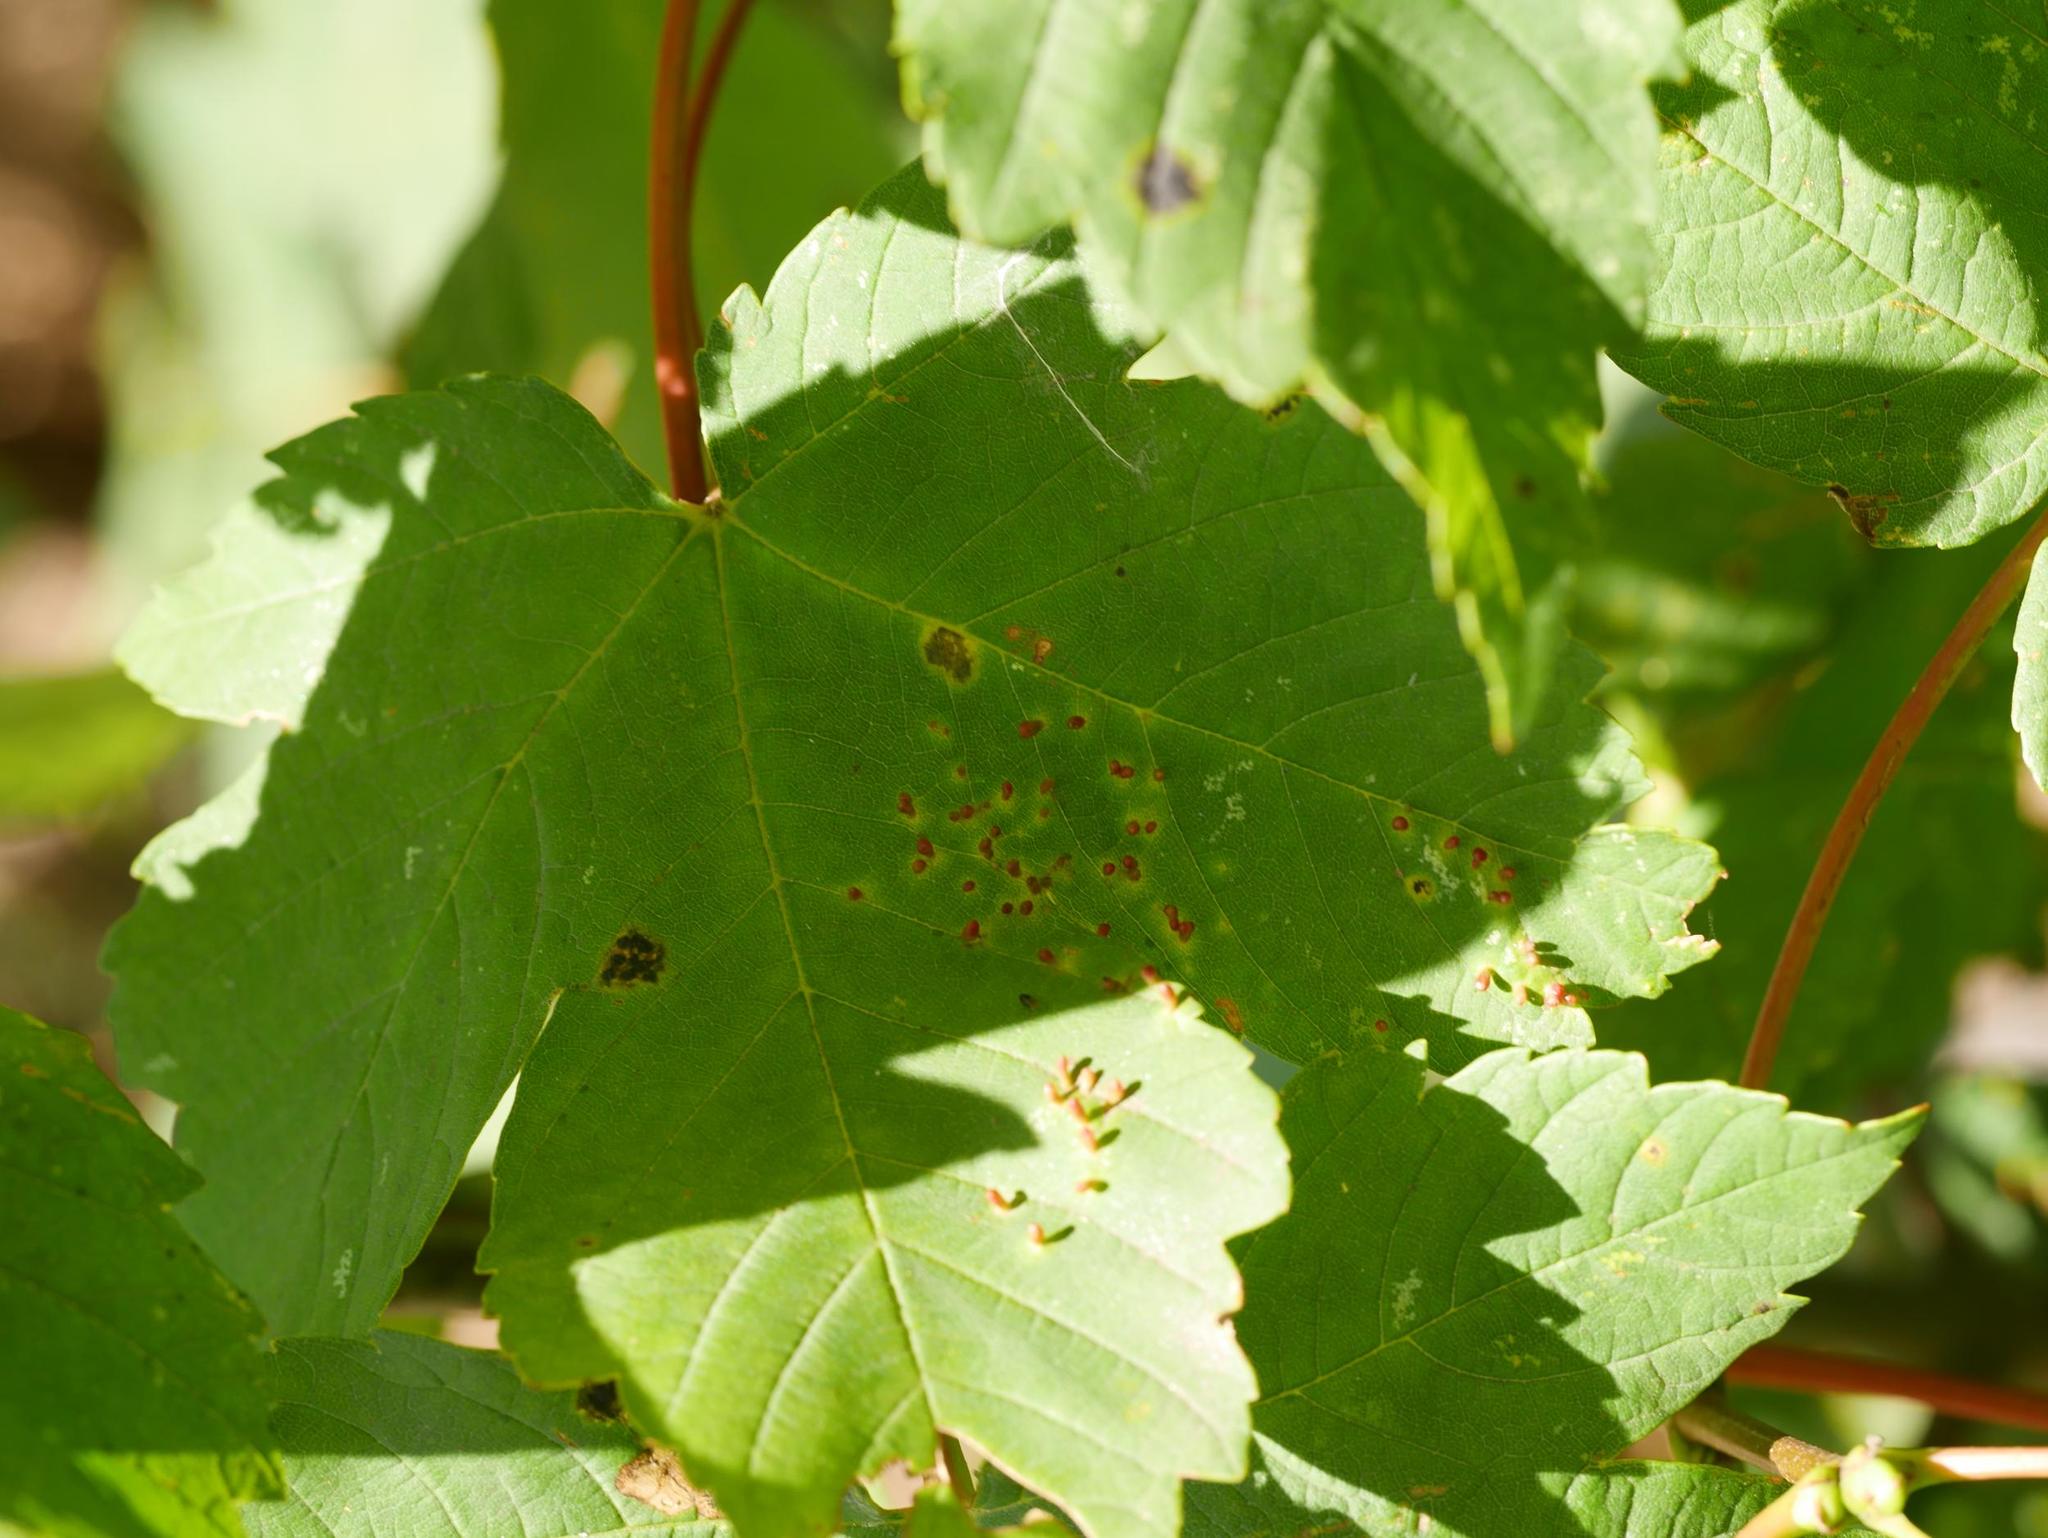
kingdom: Animalia
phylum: Arthropoda
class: Arachnida
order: Trombidiformes
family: Eriophyidae
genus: Aceria
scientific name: Aceria cephaloneus
